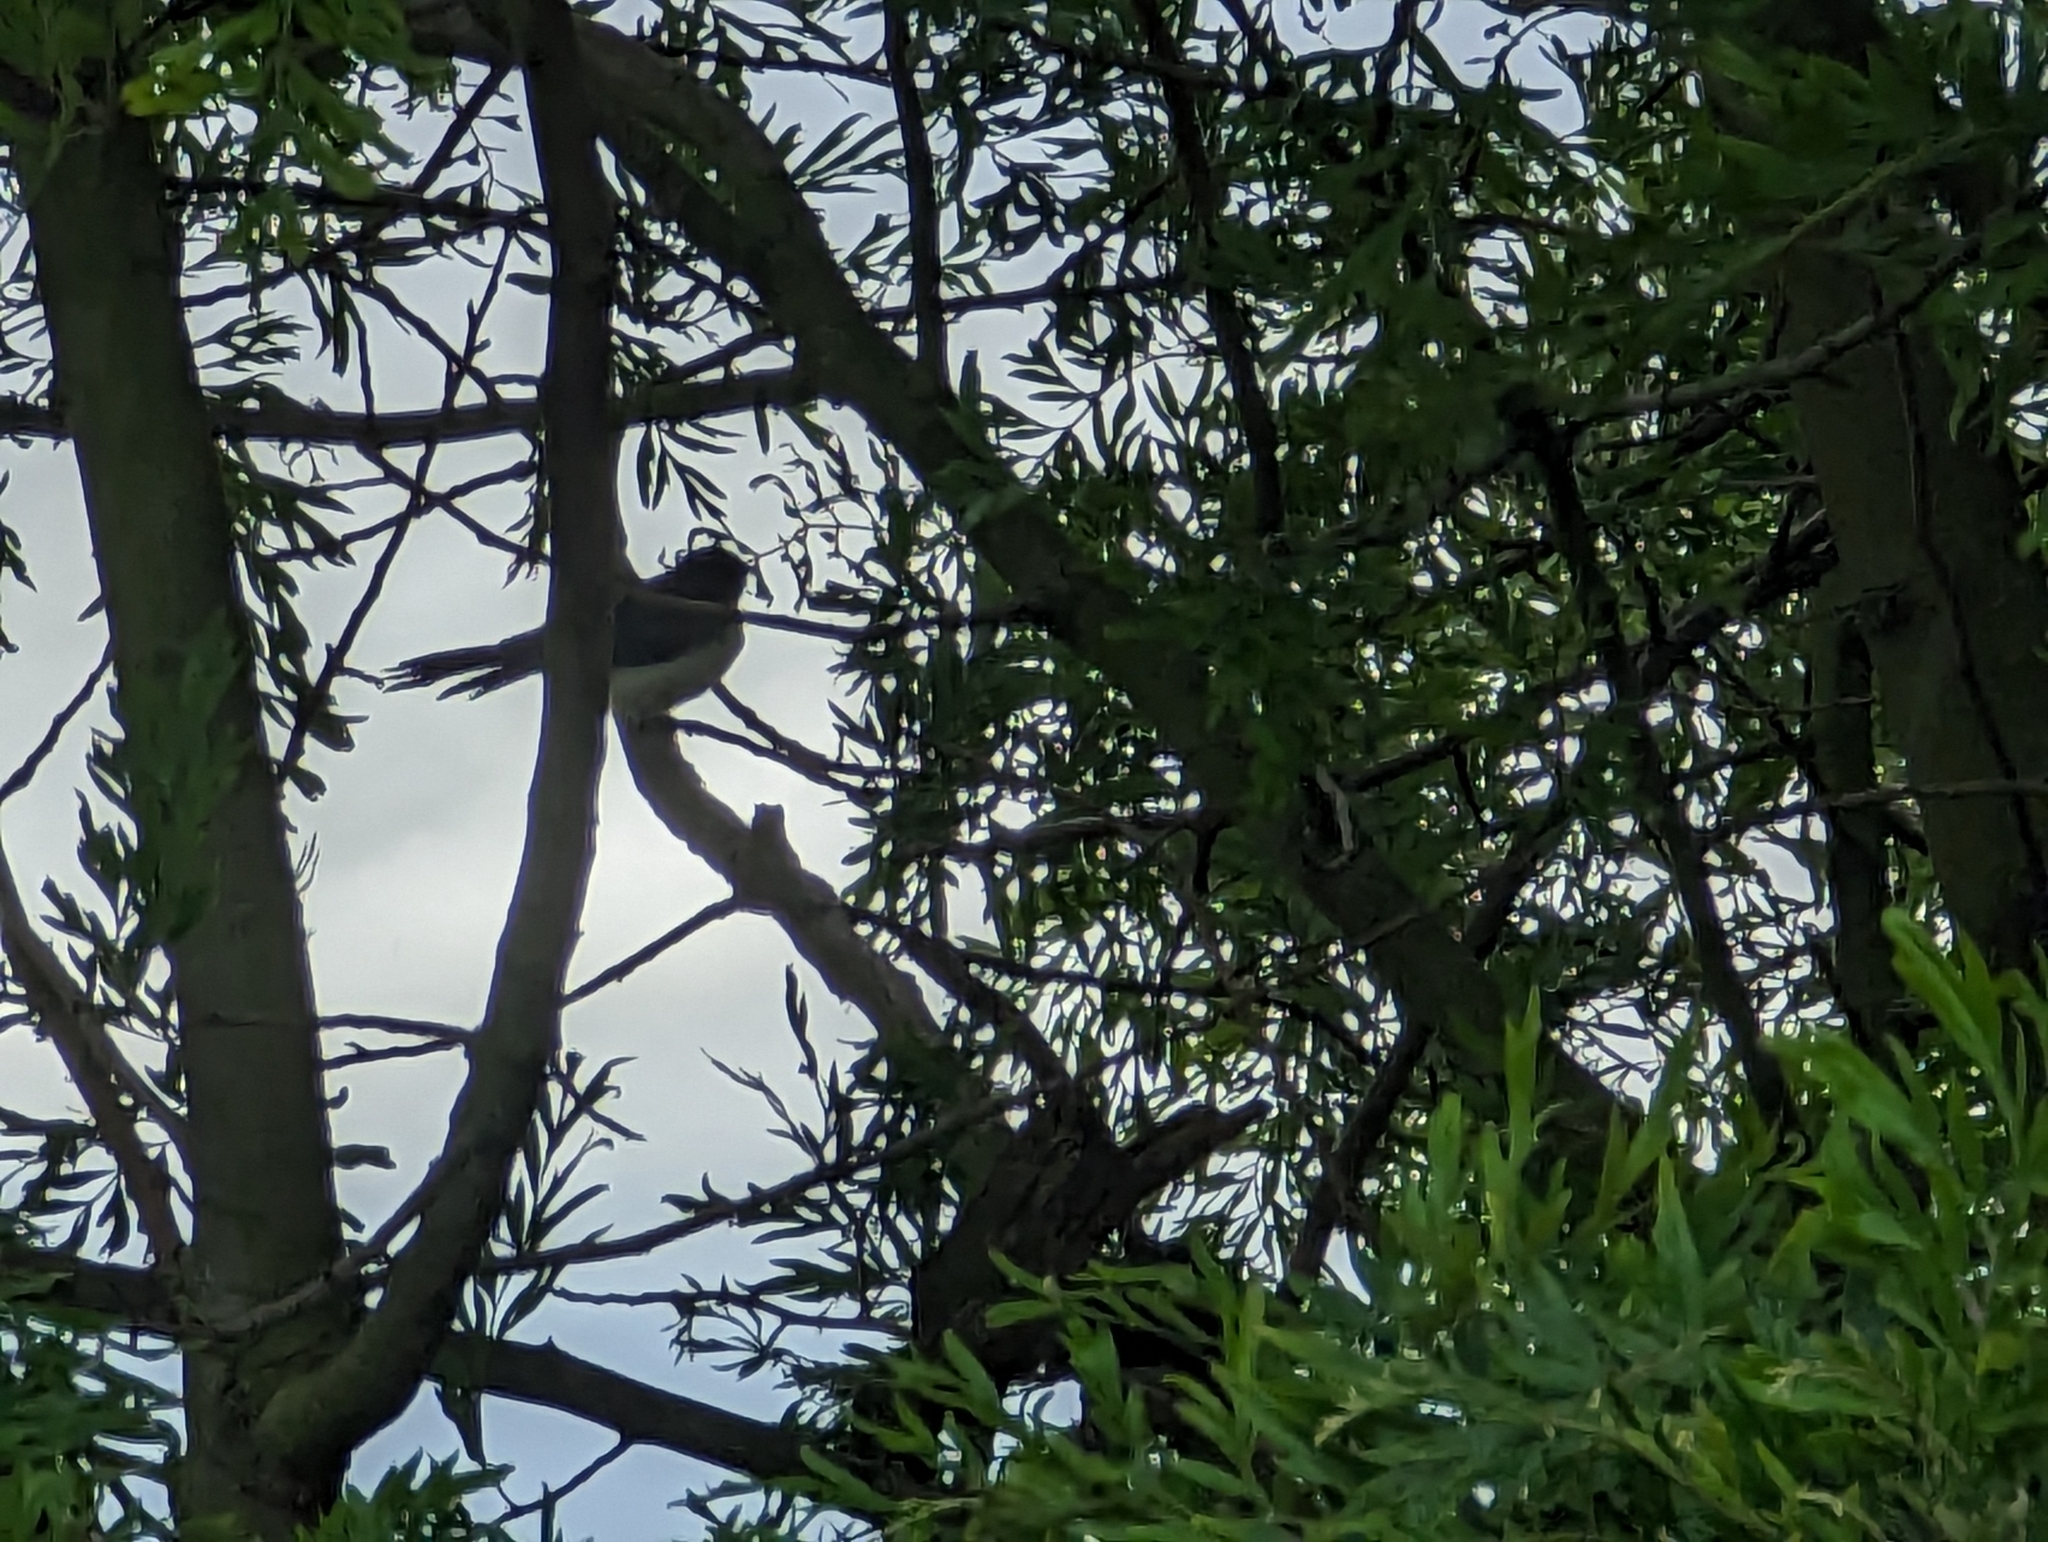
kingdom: Animalia
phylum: Chordata
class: Aves
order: Passeriformes
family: Rhipiduridae
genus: Rhipidura
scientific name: Rhipidura leucophrys
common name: Willie wagtail
